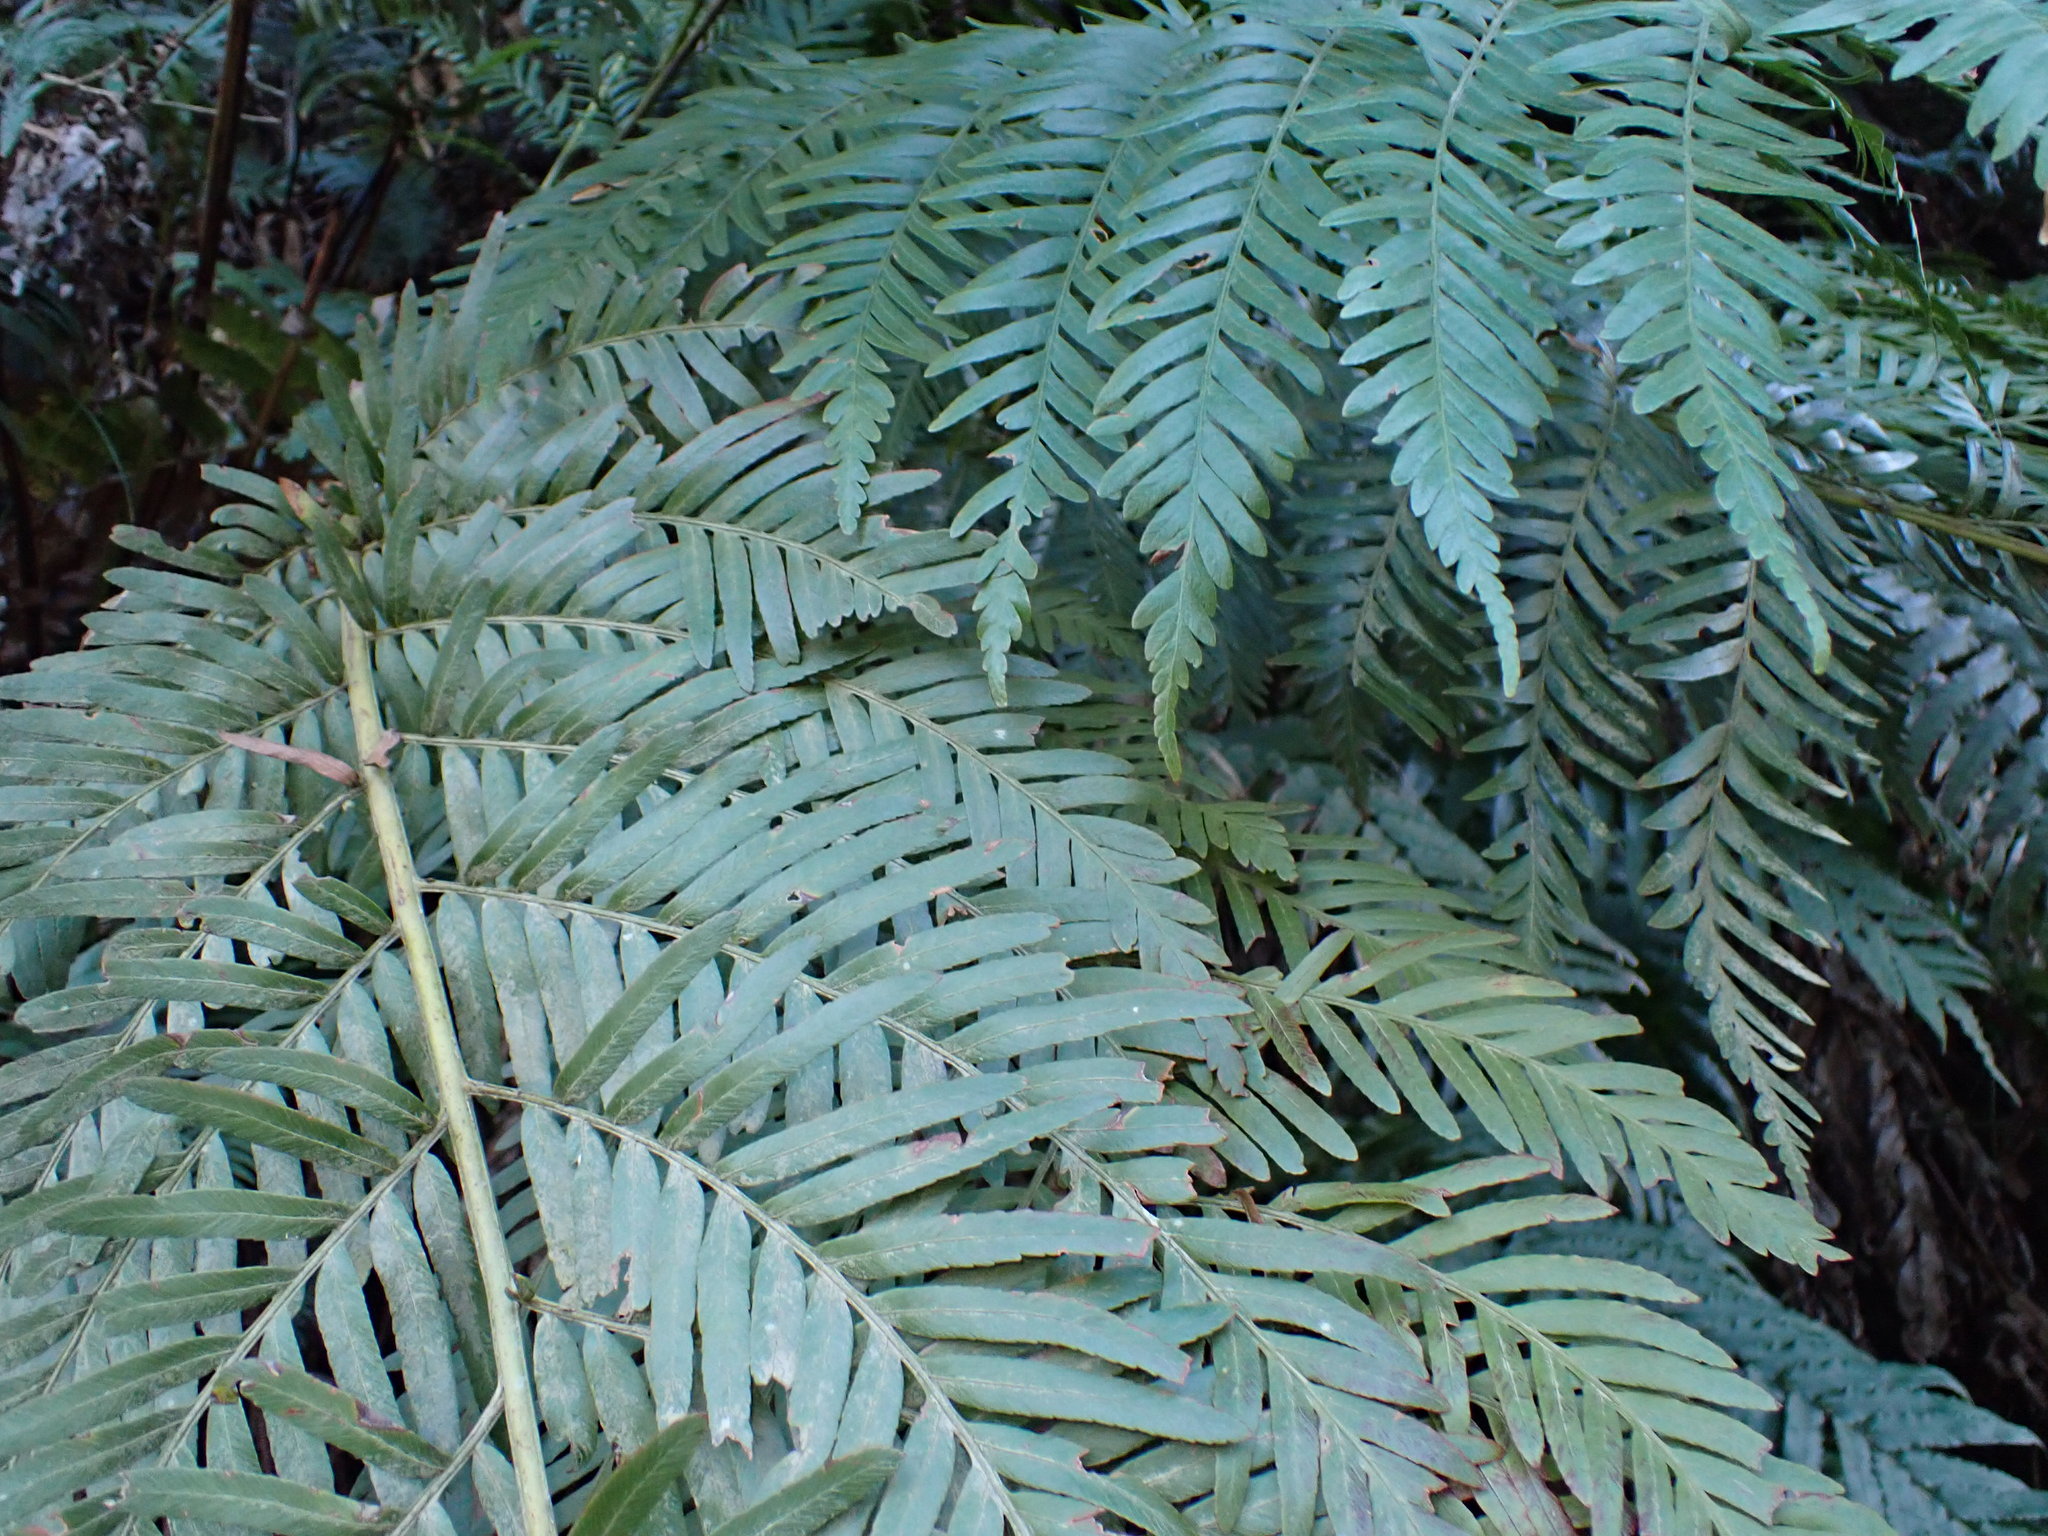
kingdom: Plantae
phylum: Tracheophyta
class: Polypodiopsida
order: Osmundales
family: Osmundaceae
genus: Todea
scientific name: Todea barbara
